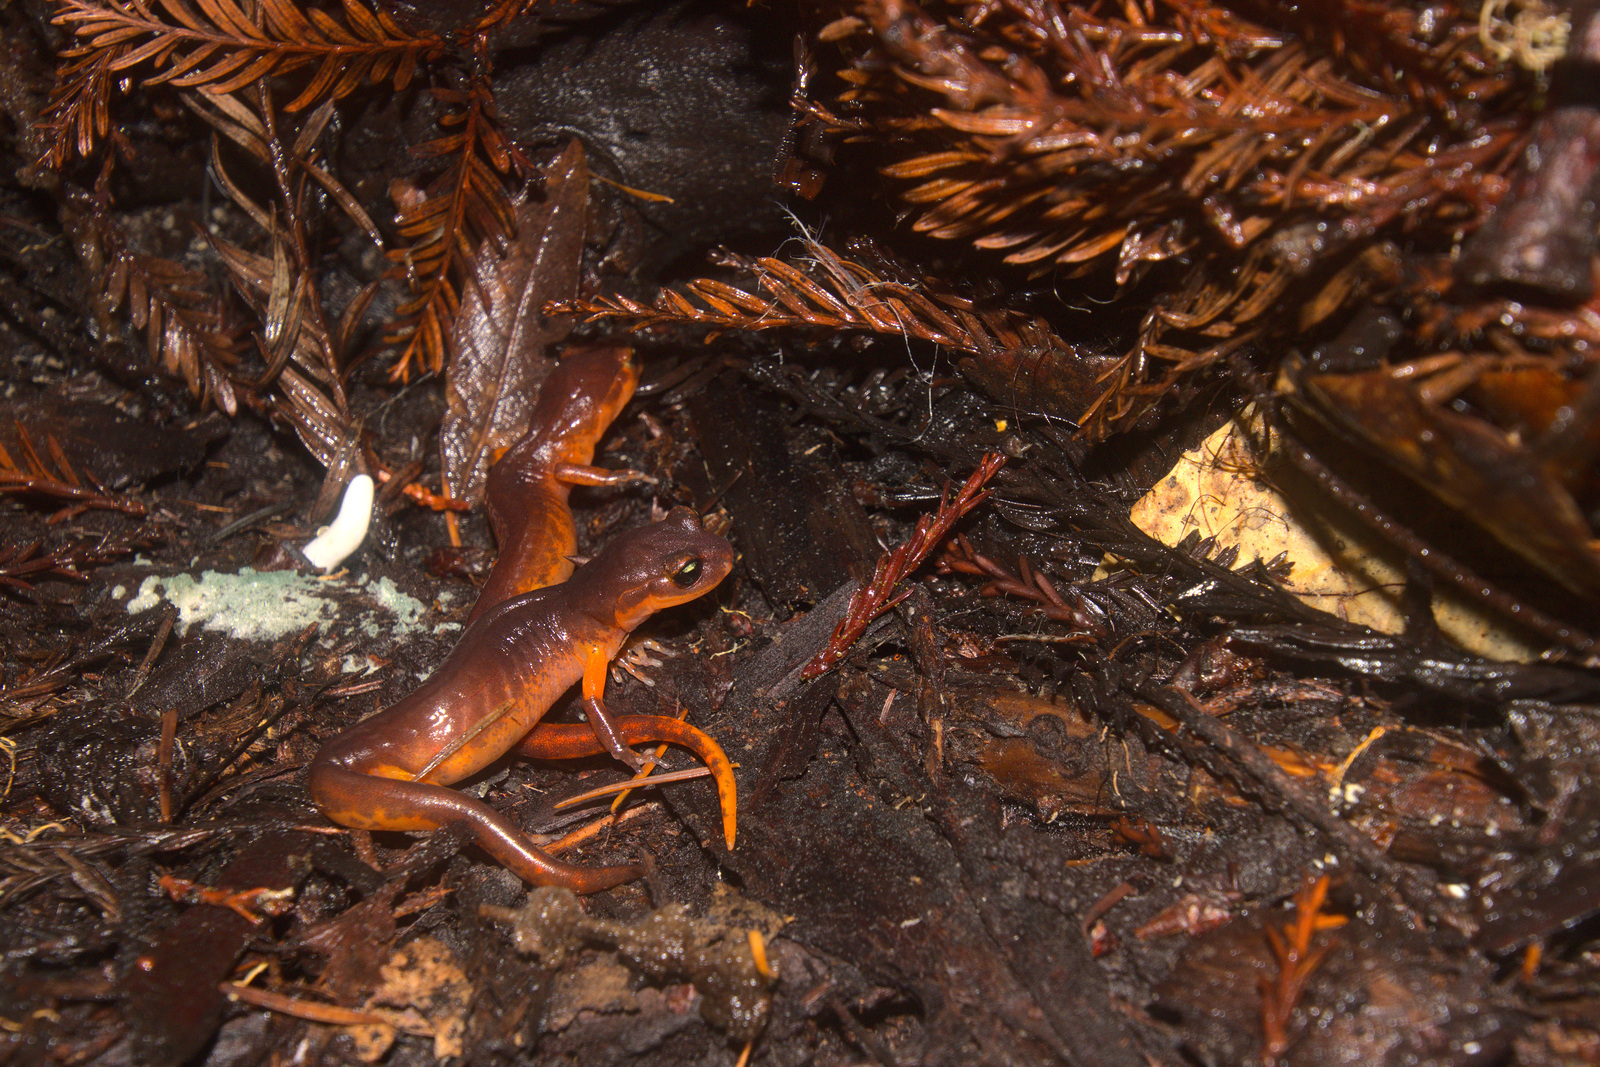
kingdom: Animalia
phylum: Chordata
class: Amphibia
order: Caudata
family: Plethodontidae
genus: Ensatina
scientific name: Ensatina eschscholtzii
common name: Ensatina
